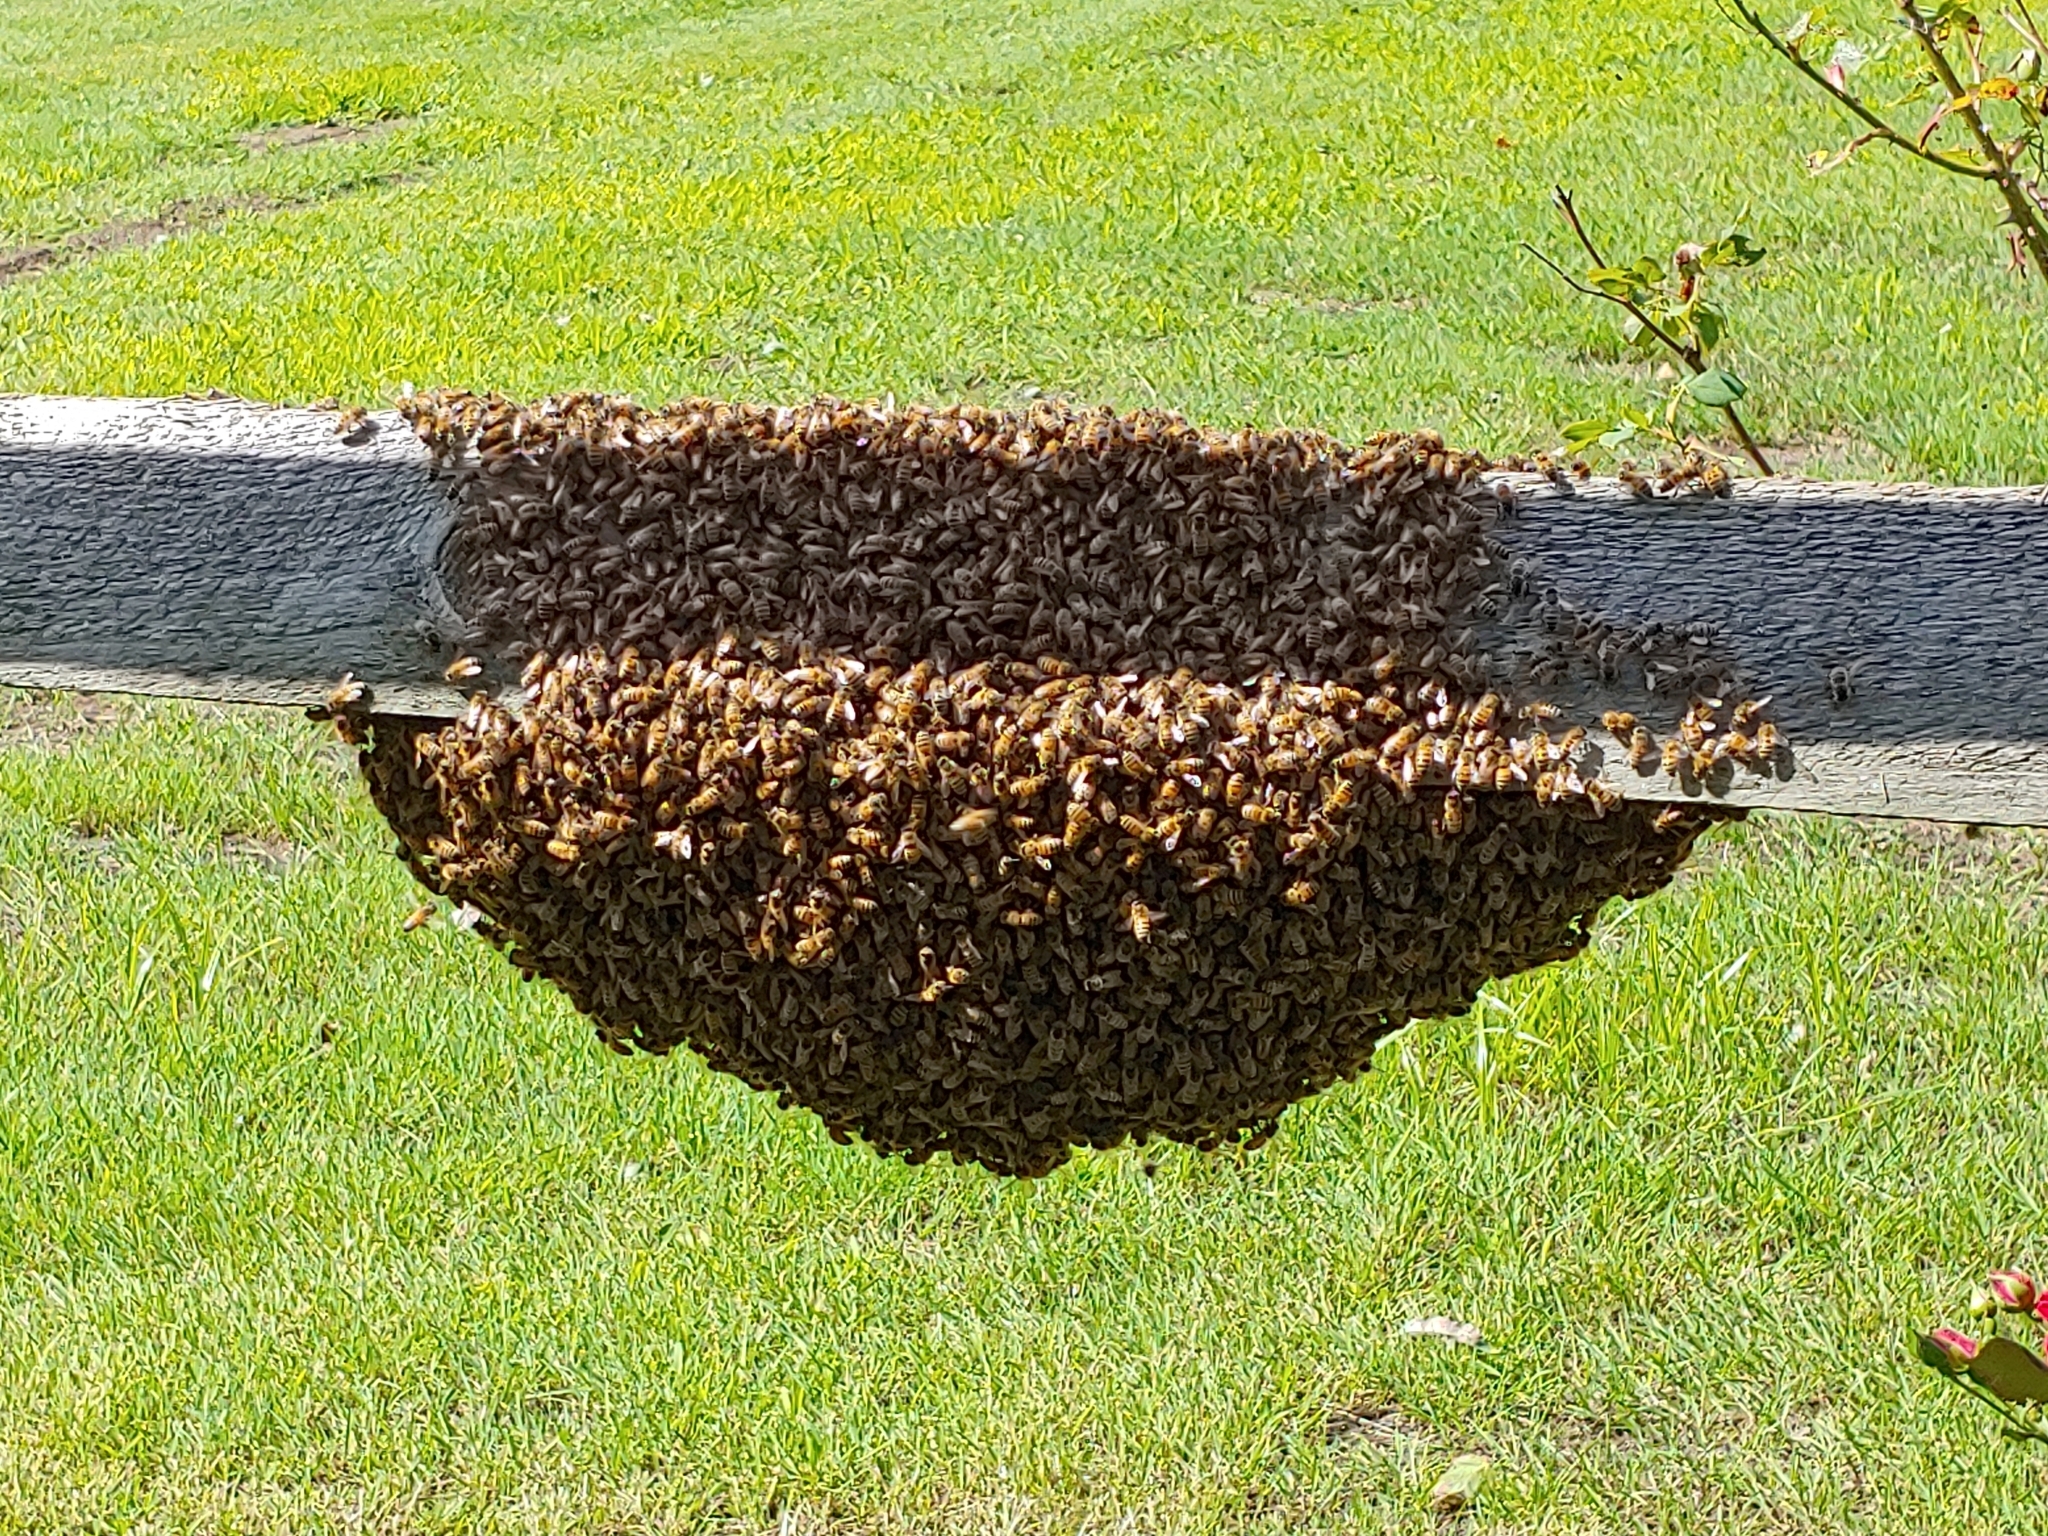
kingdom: Animalia
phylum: Arthropoda
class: Insecta
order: Hymenoptera
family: Apidae
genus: Apis
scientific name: Apis mellifera
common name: Honey bee
